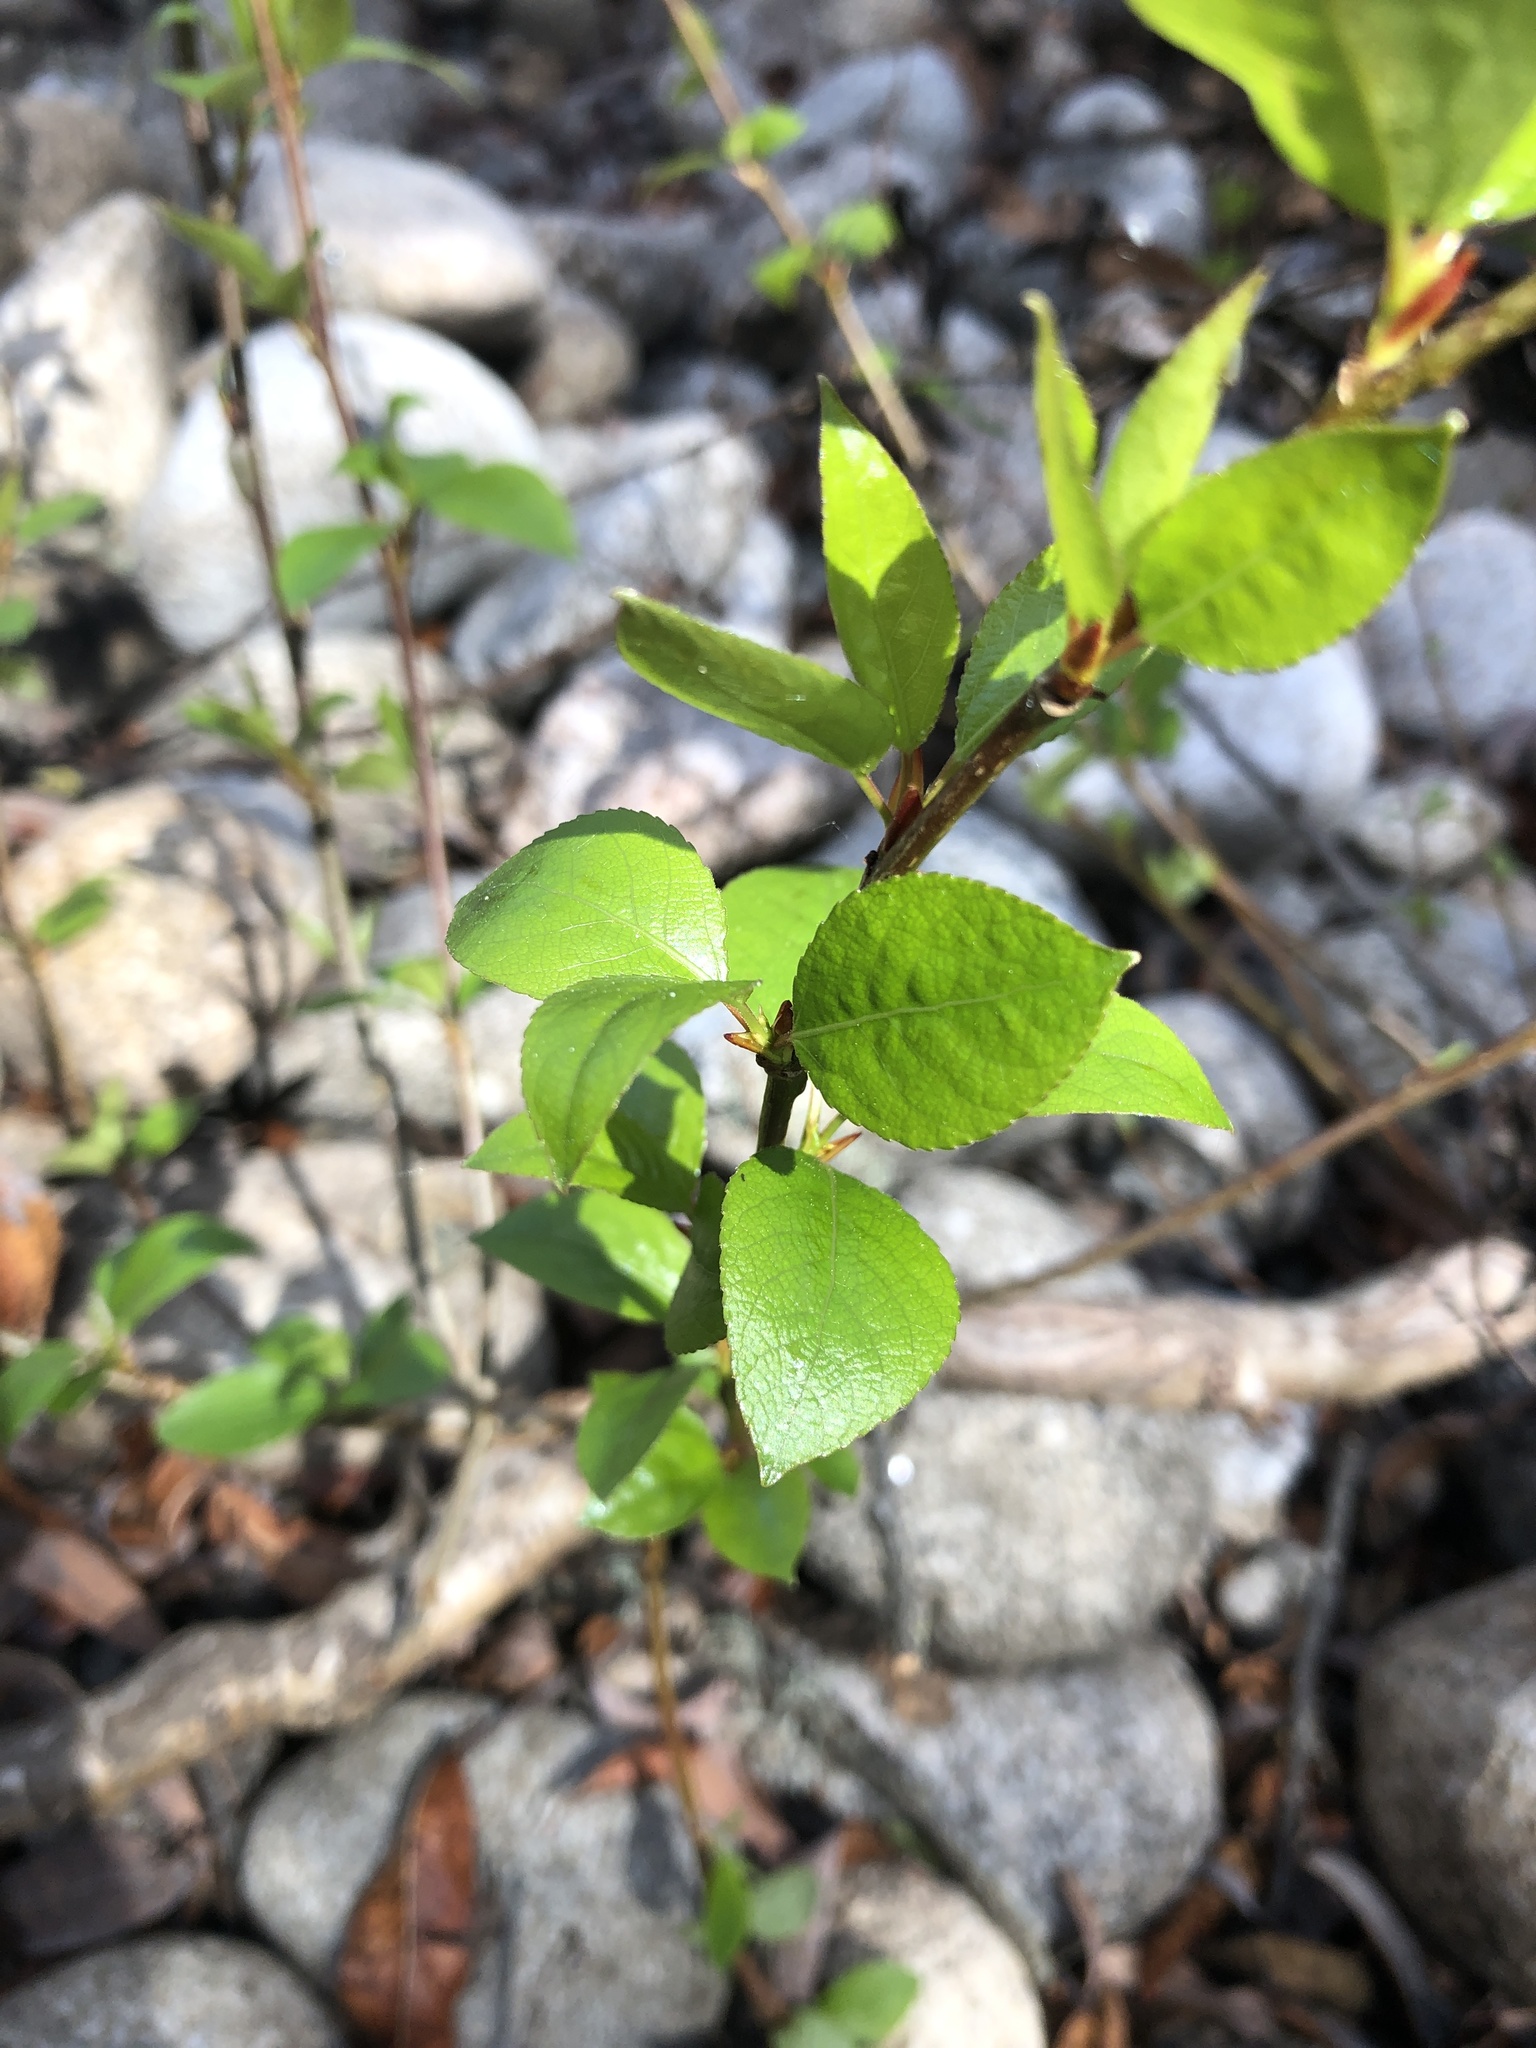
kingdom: Plantae
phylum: Tracheophyta
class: Magnoliopsida
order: Malpighiales
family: Salicaceae
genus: Populus
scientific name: Populus trichocarpa
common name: Black cottonwood
